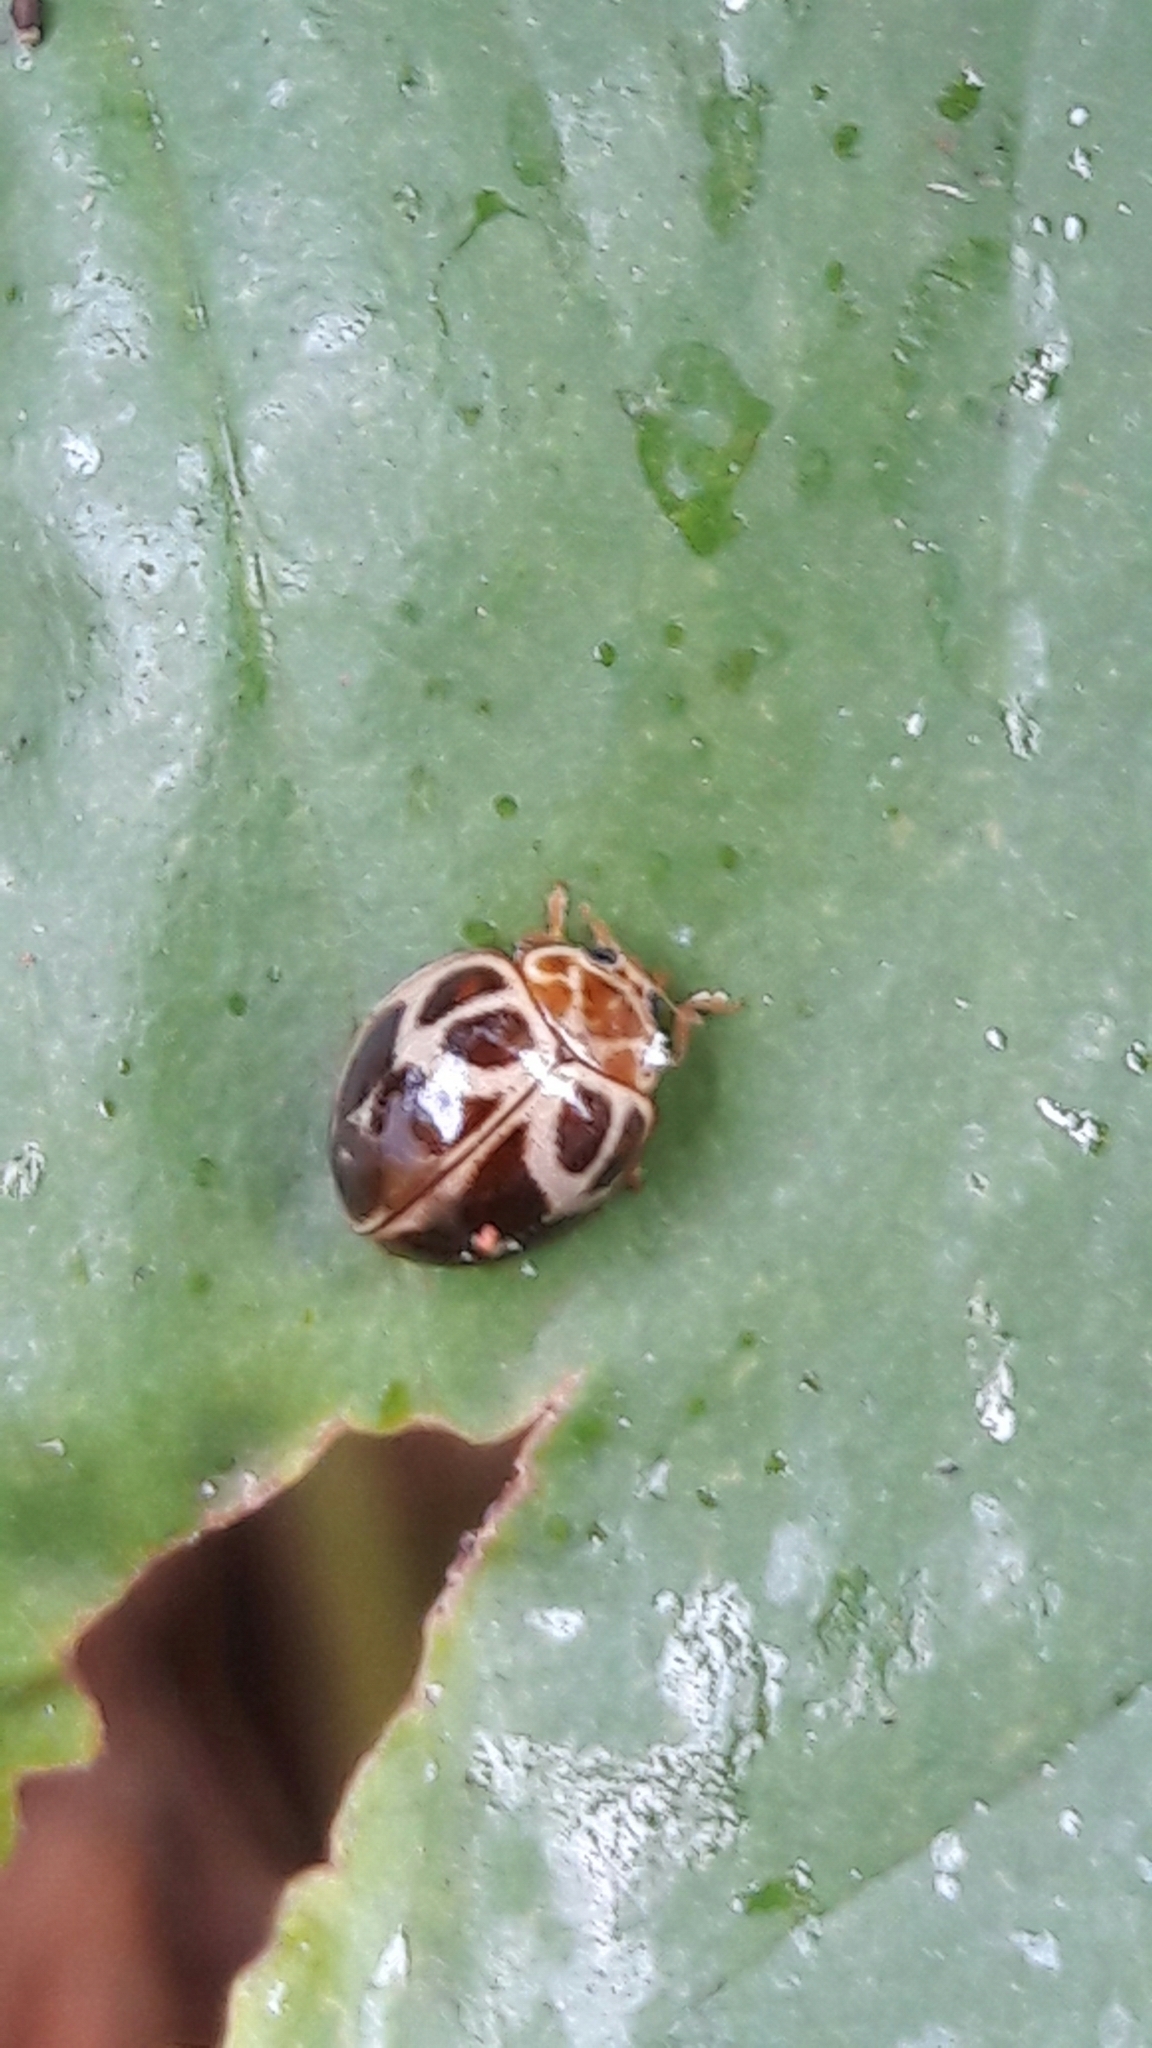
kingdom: Animalia
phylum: Arthropoda
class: Insecta
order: Coleoptera
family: Coccinellidae
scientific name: Coccinellidae
